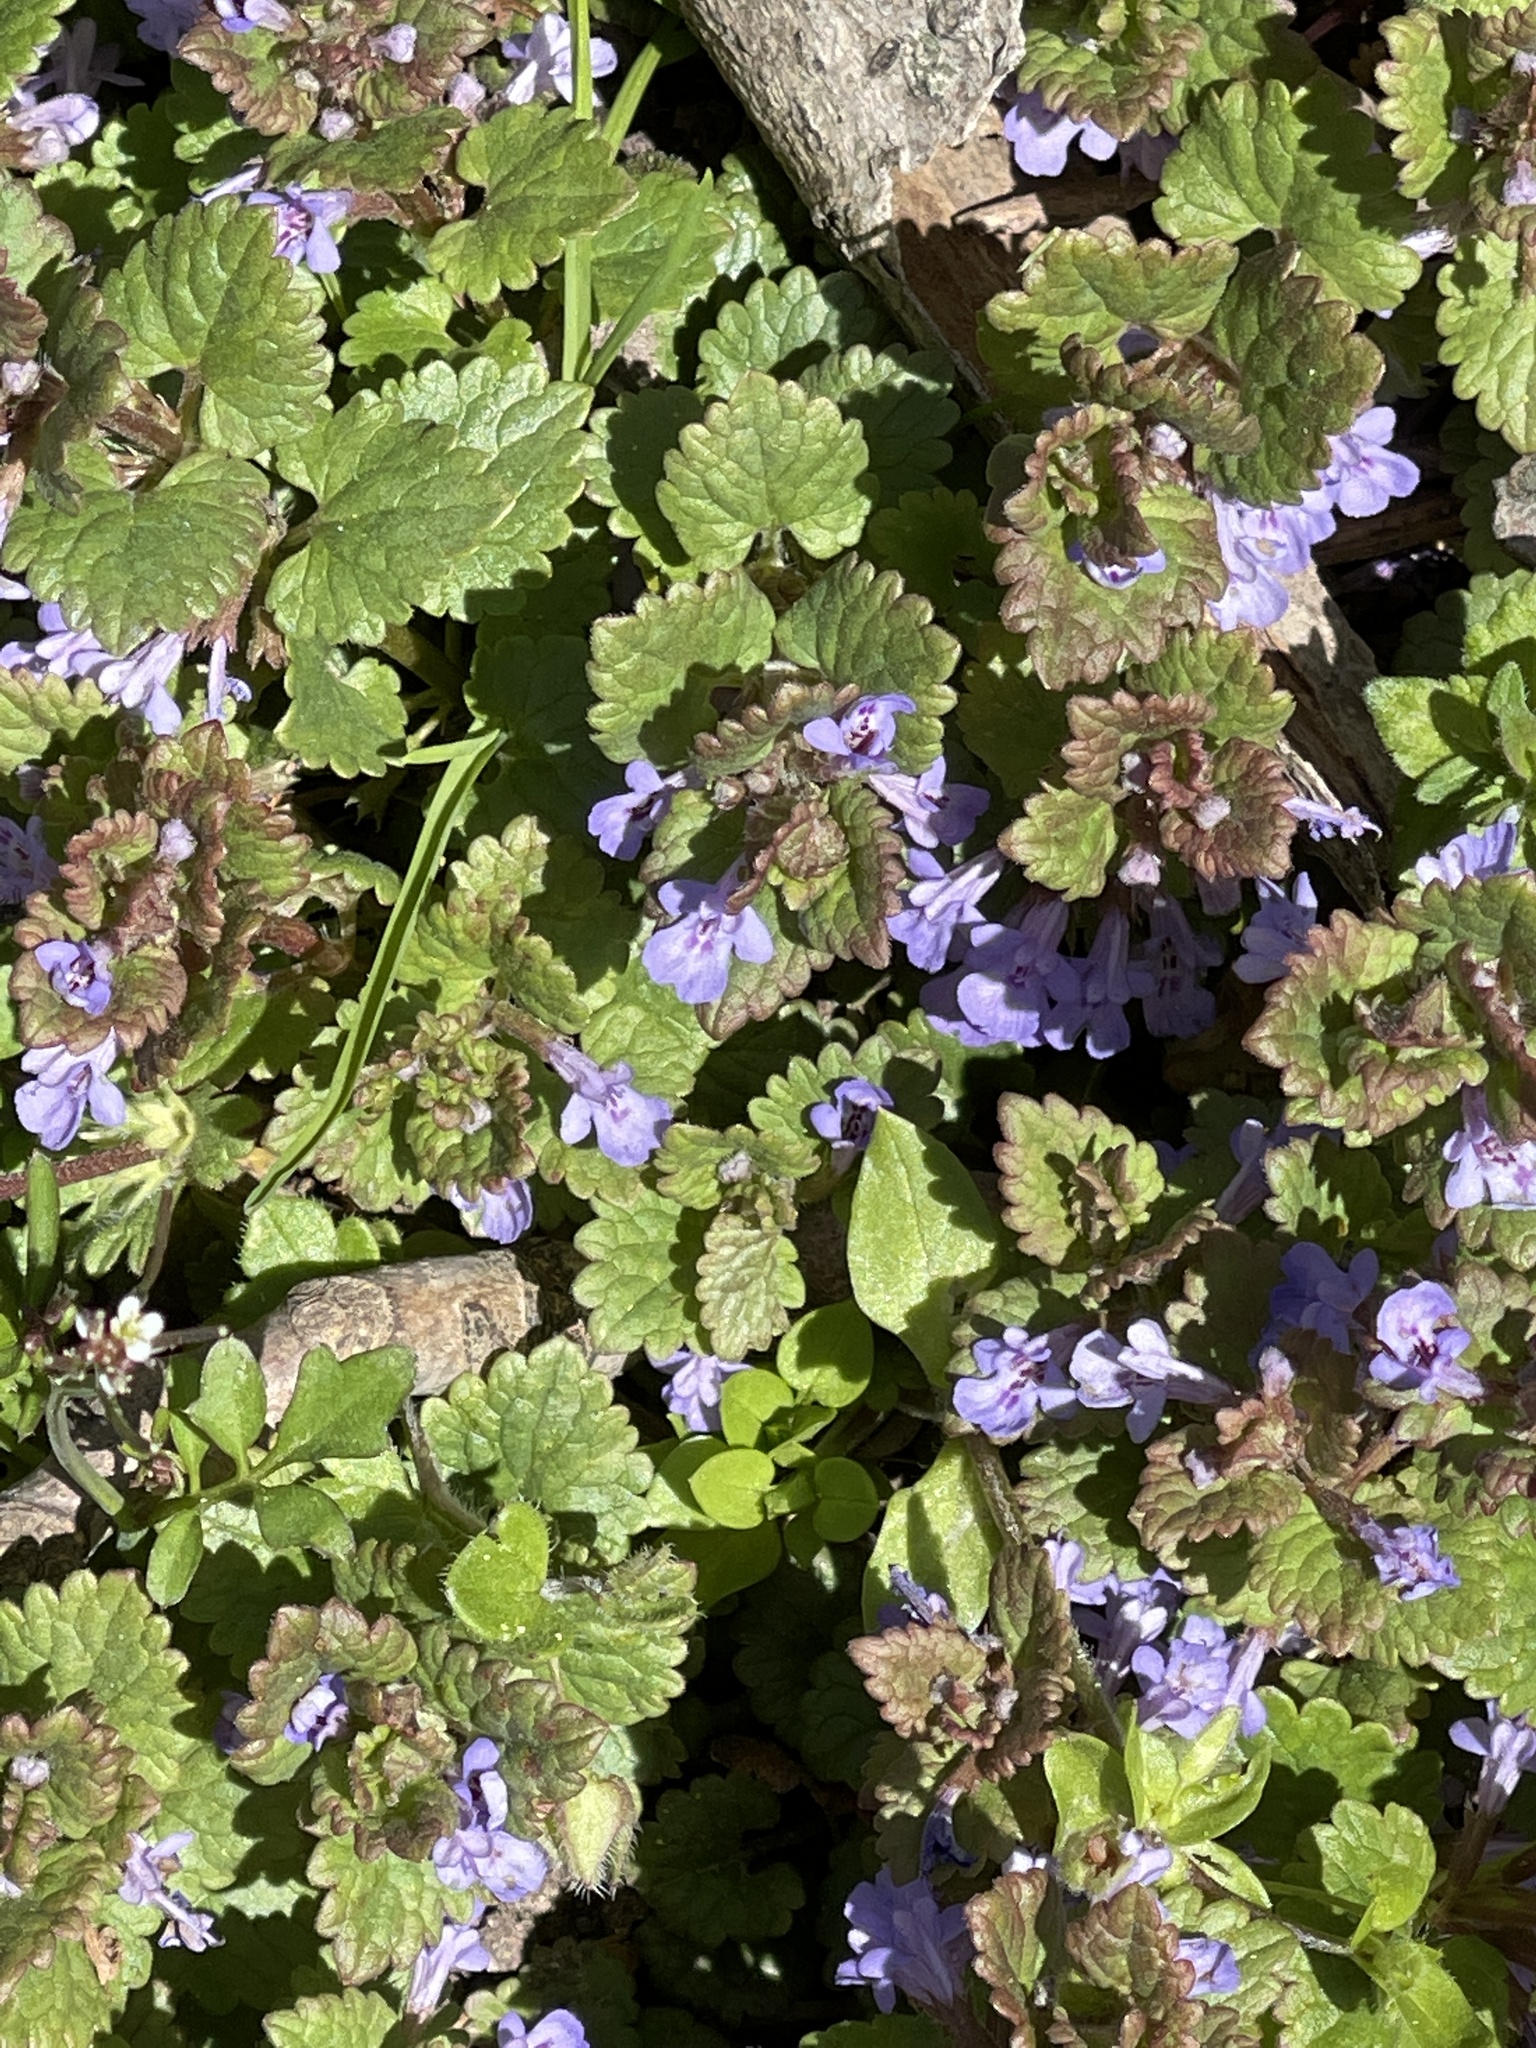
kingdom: Plantae
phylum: Tracheophyta
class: Magnoliopsida
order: Lamiales
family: Lamiaceae
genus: Glechoma
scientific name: Glechoma hederacea
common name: Ground ivy
